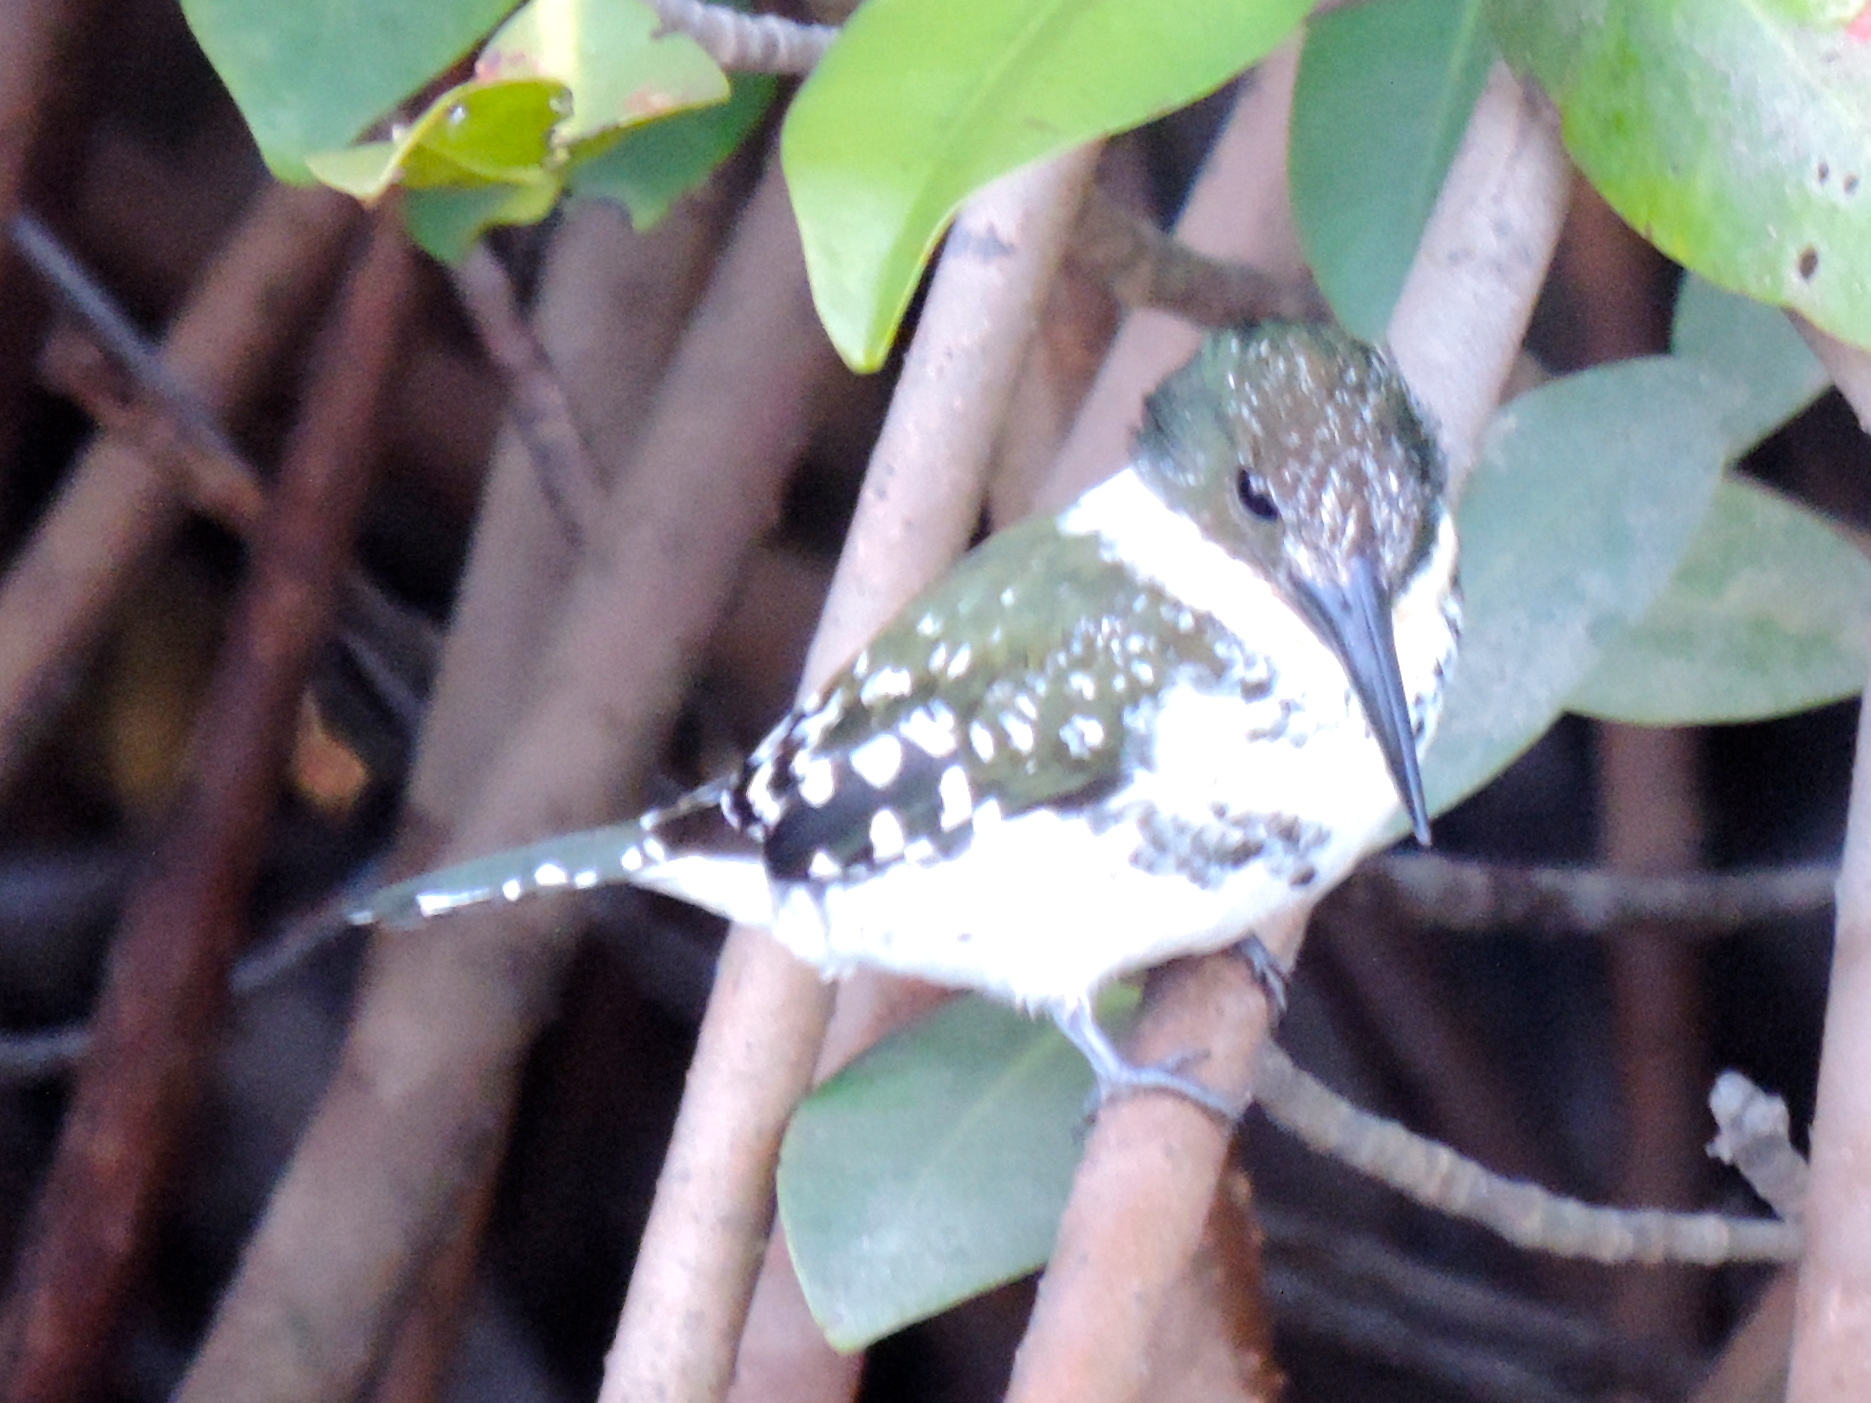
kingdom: Animalia
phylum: Chordata
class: Aves
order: Coraciiformes
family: Alcedinidae
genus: Chloroceryle
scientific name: Chloroceryle americana
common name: Green kingfisher
